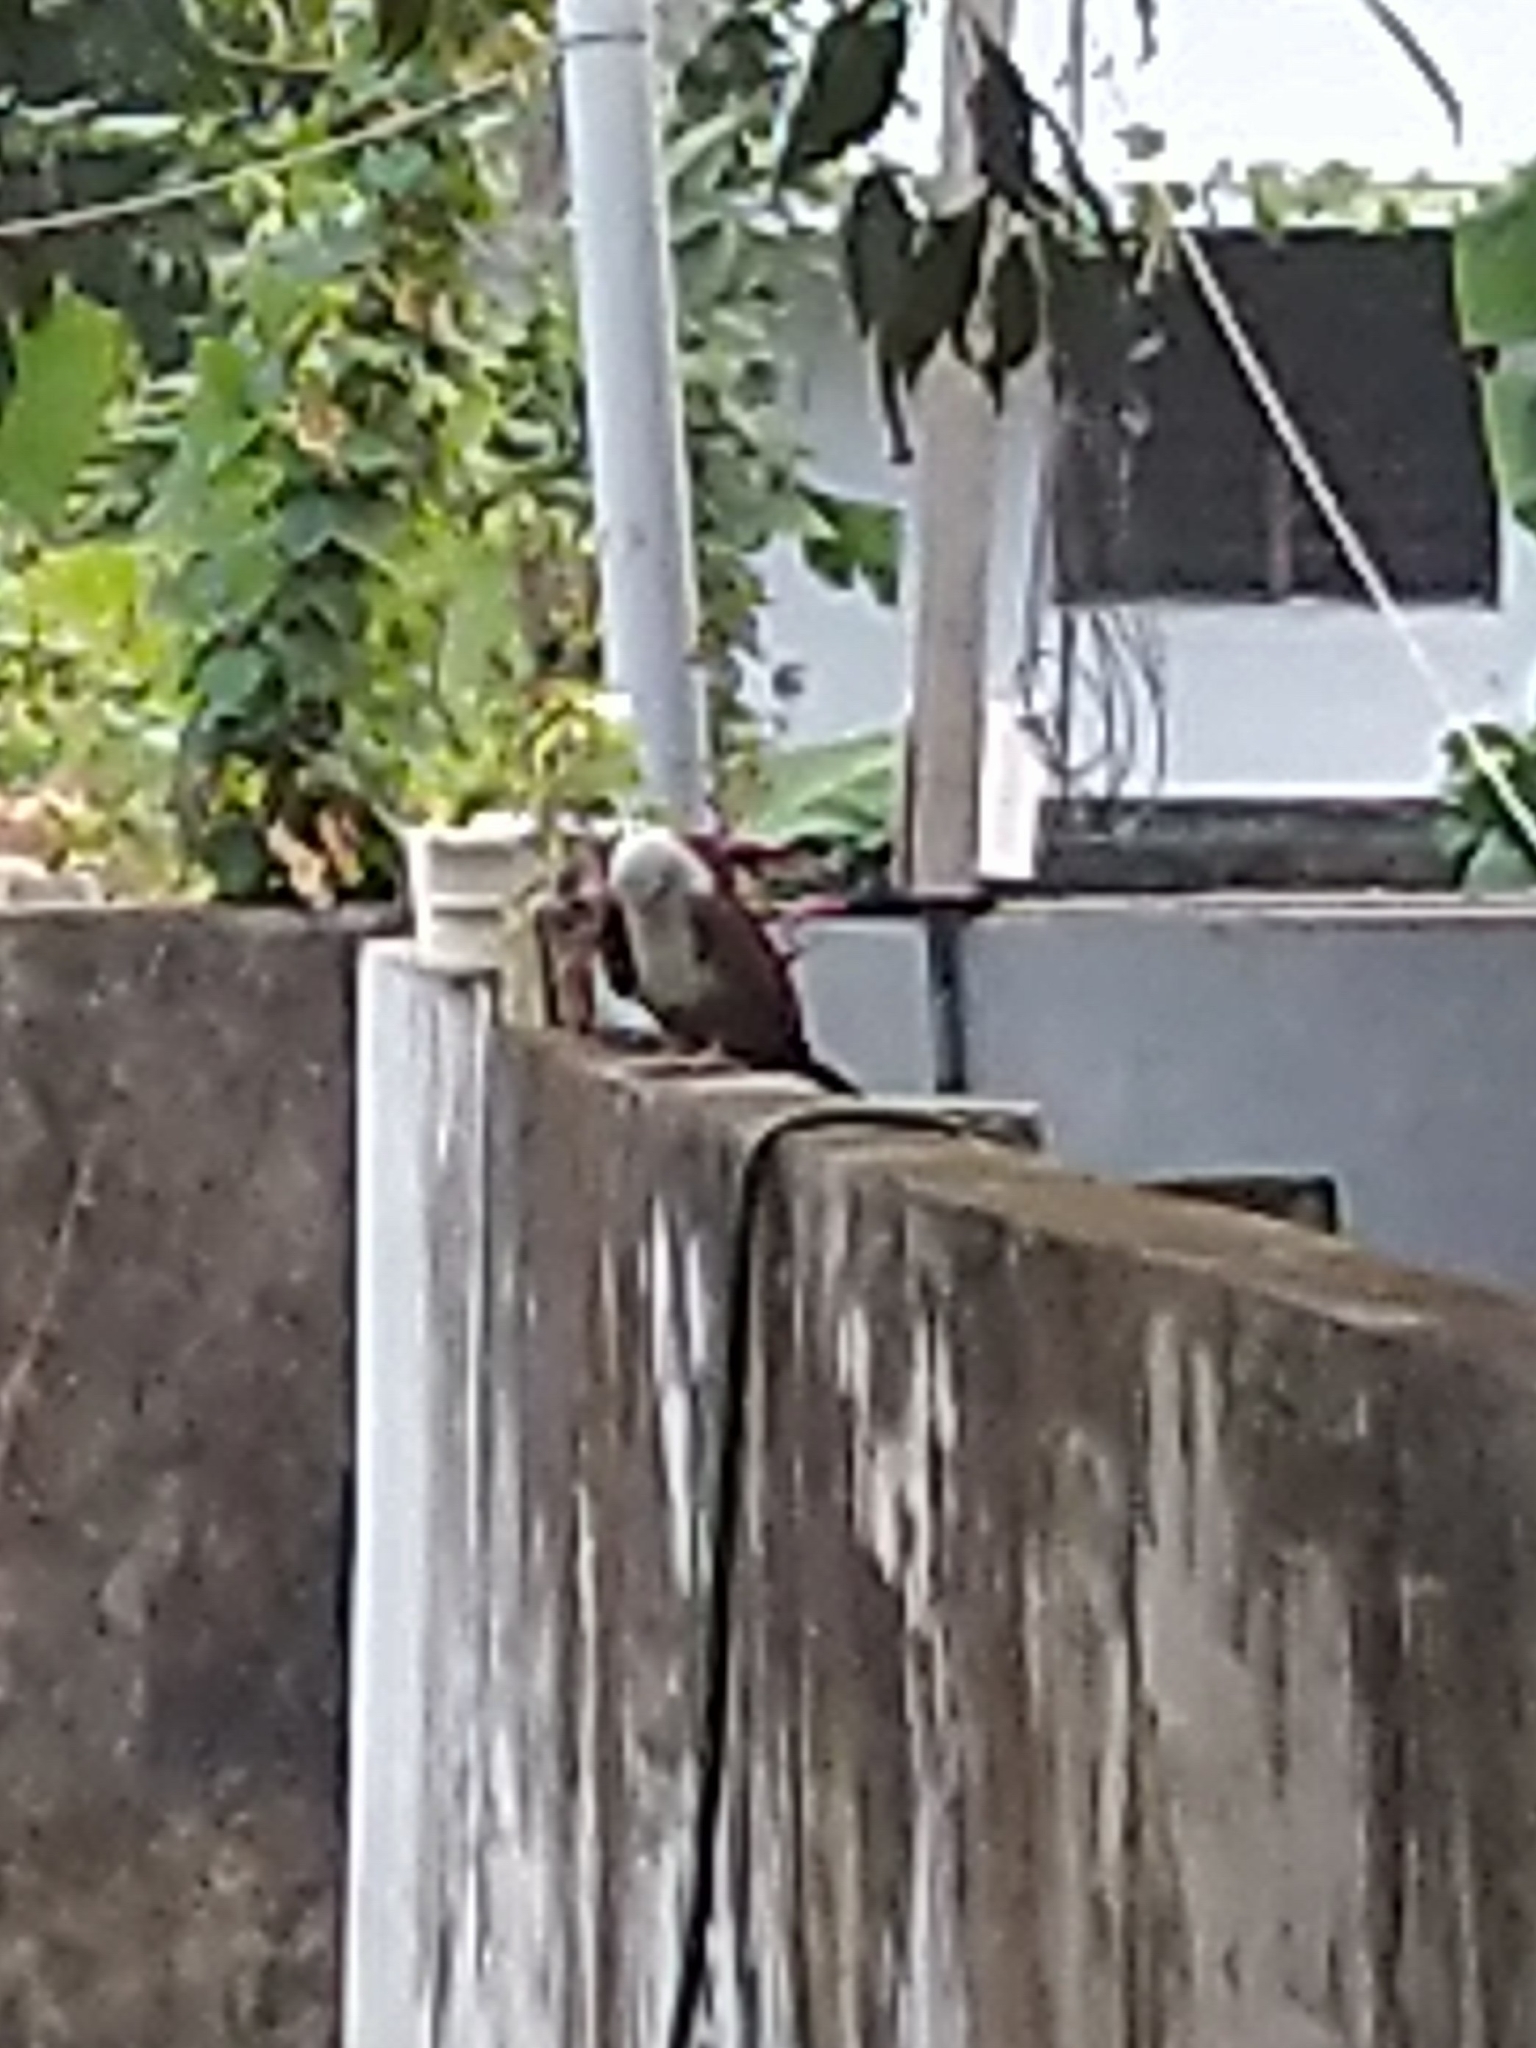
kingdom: Animalia
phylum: Chordata
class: Aves
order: Accipitriformes
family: Accipitridae
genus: Haliastur
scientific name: Haliastur indus
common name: Brahminy kite
